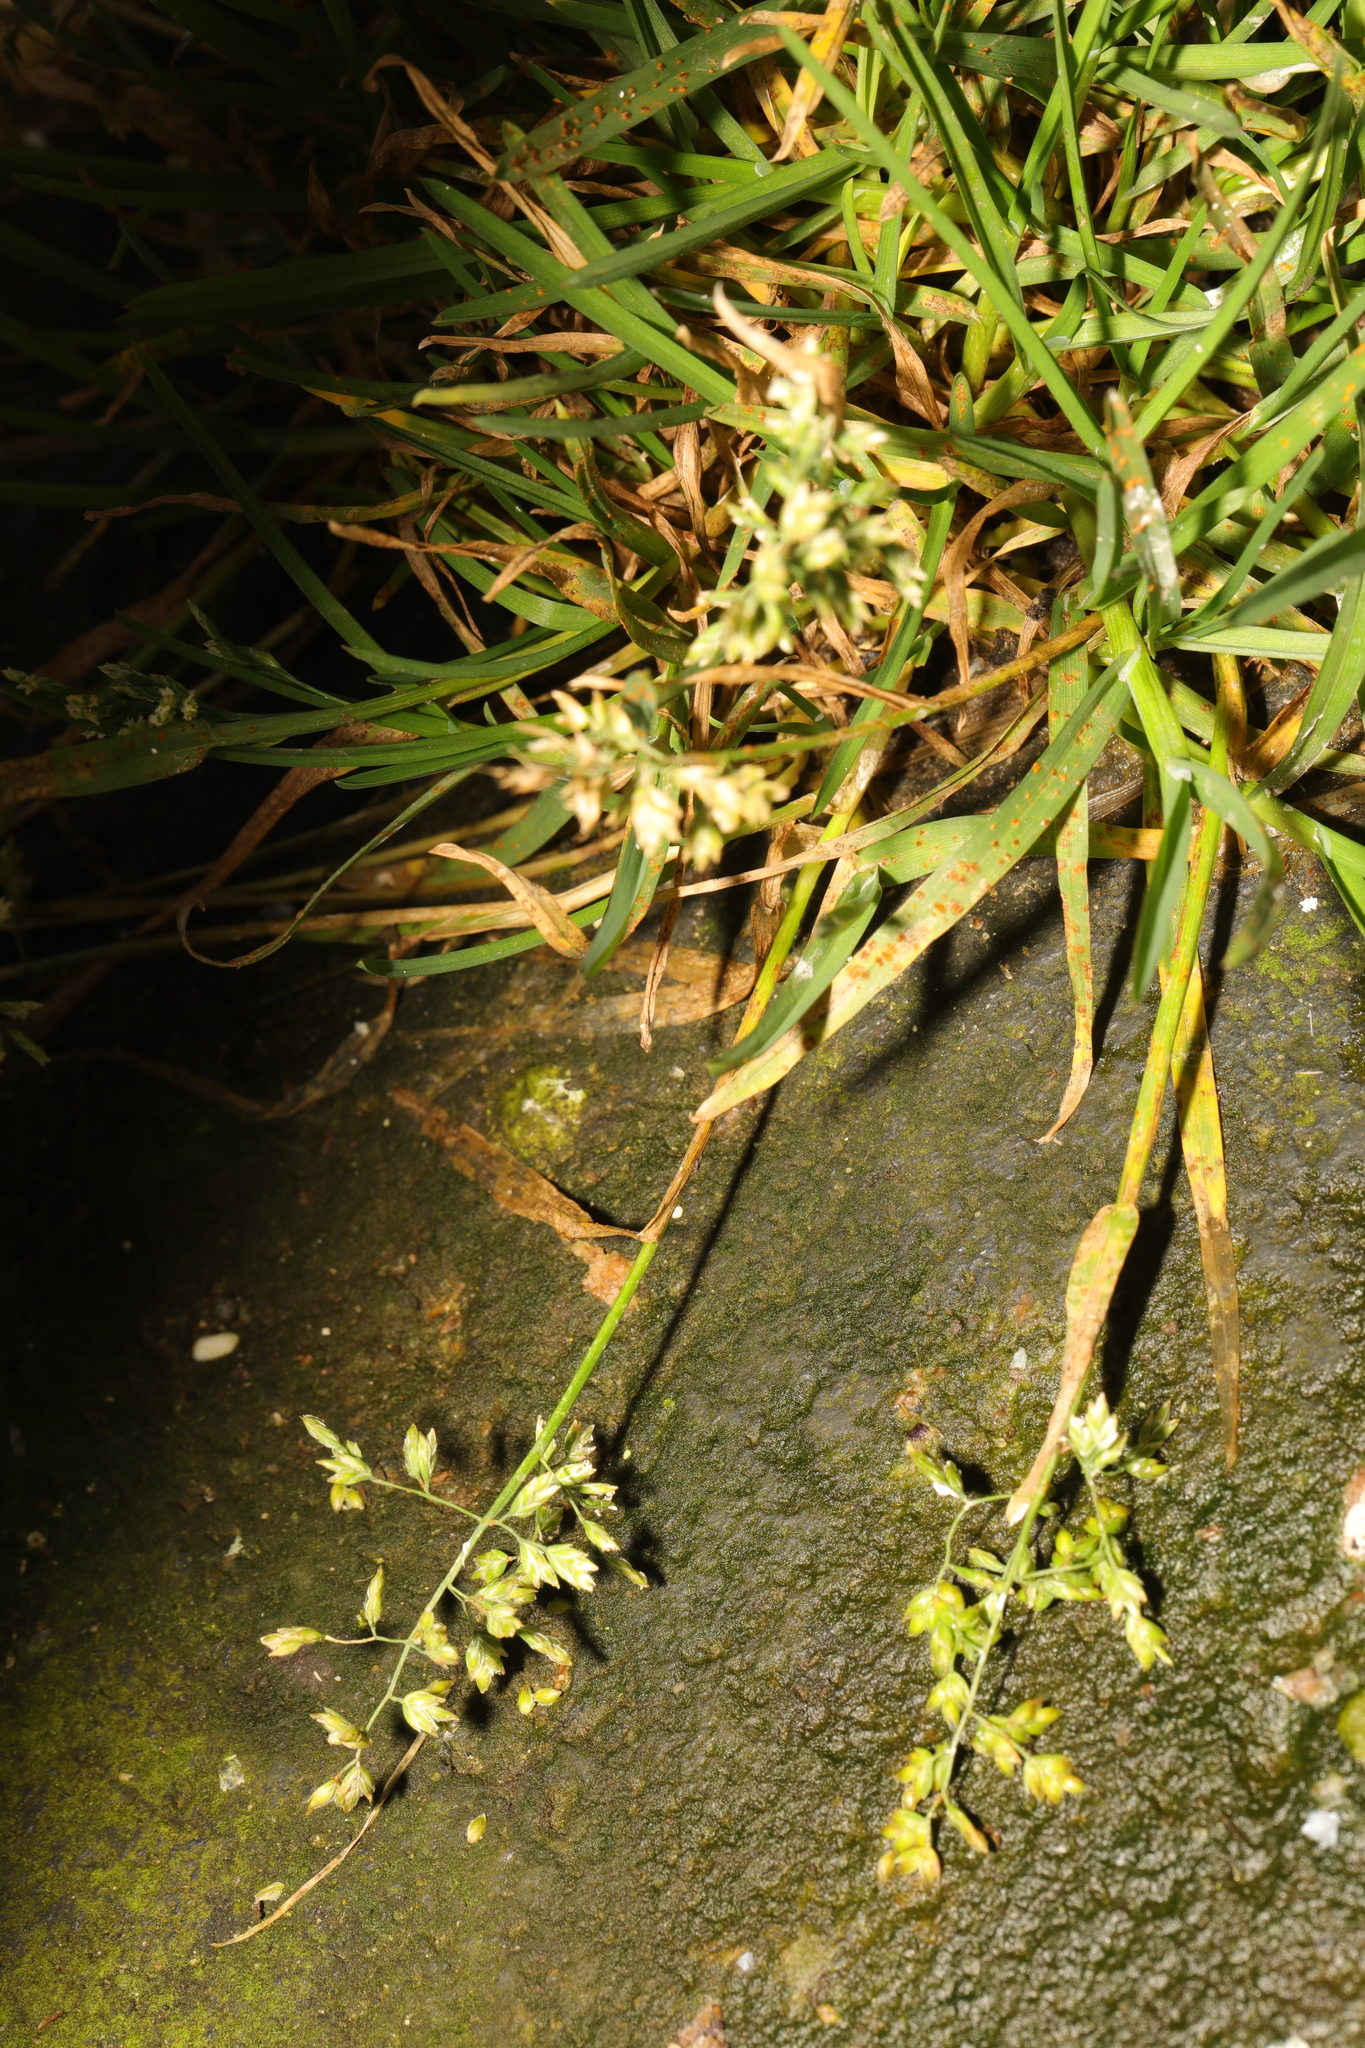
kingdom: Plantae
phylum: Tracheophyta
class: Liliopsida
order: Poales
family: Poaceae
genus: Poa
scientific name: Poa annua
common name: Annual bluegrass
